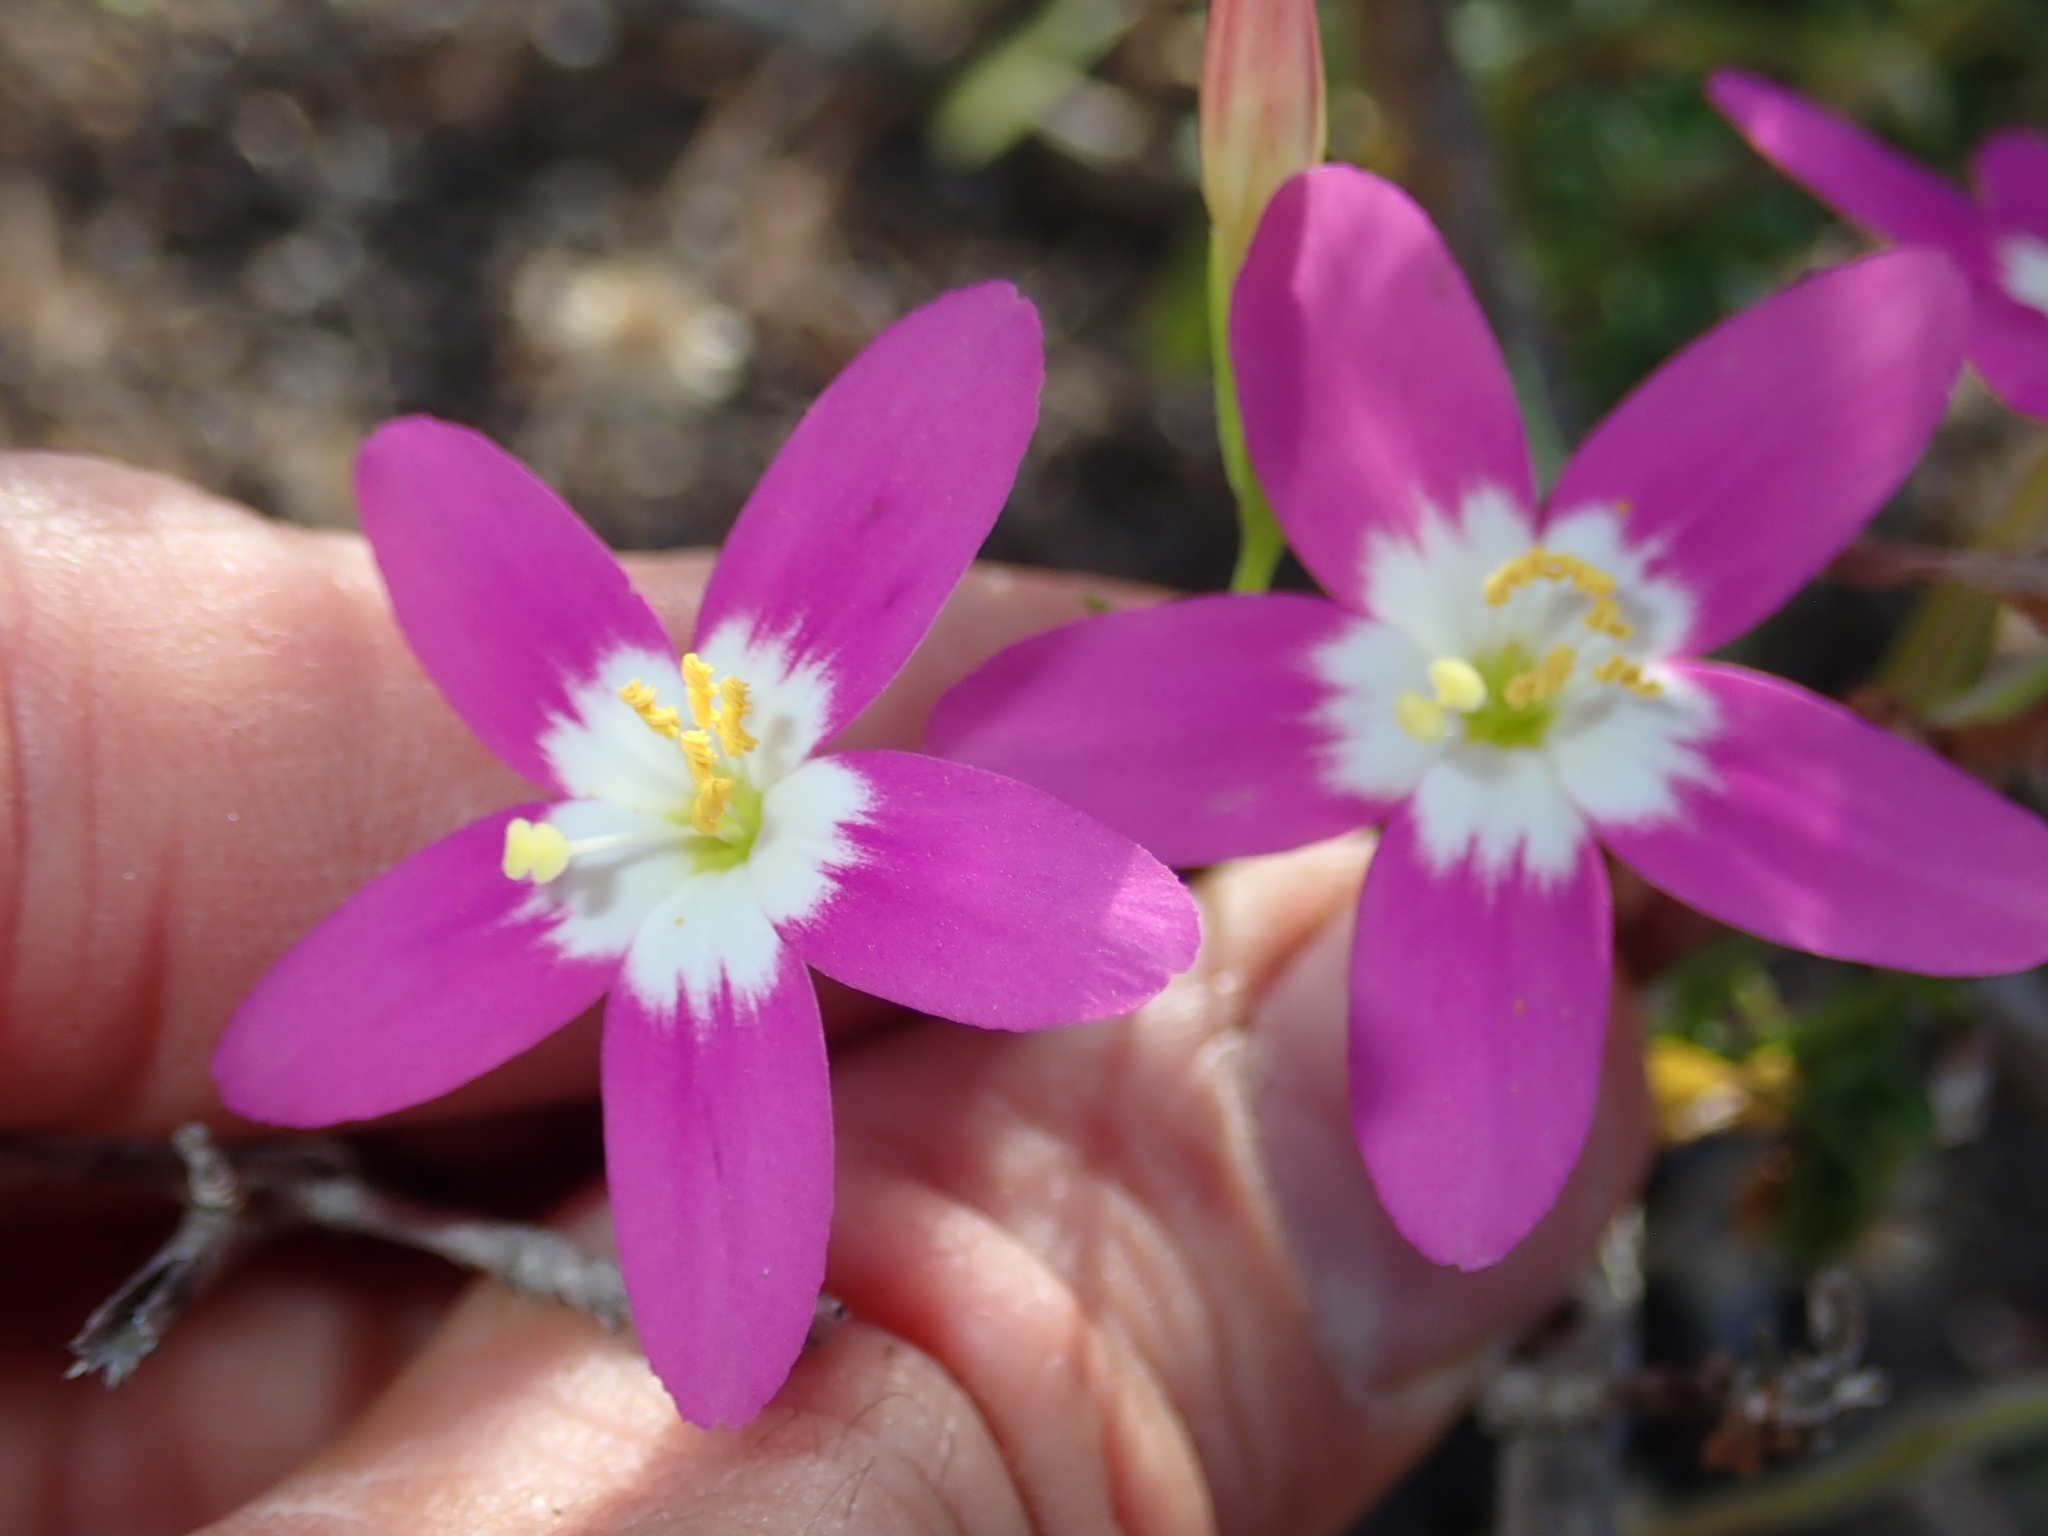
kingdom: Plantae
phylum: Tracheophyta
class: Magnoliopsida
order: Gentianales
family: Gentianaceae
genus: Zeltnera
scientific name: Zeltnera venusta
